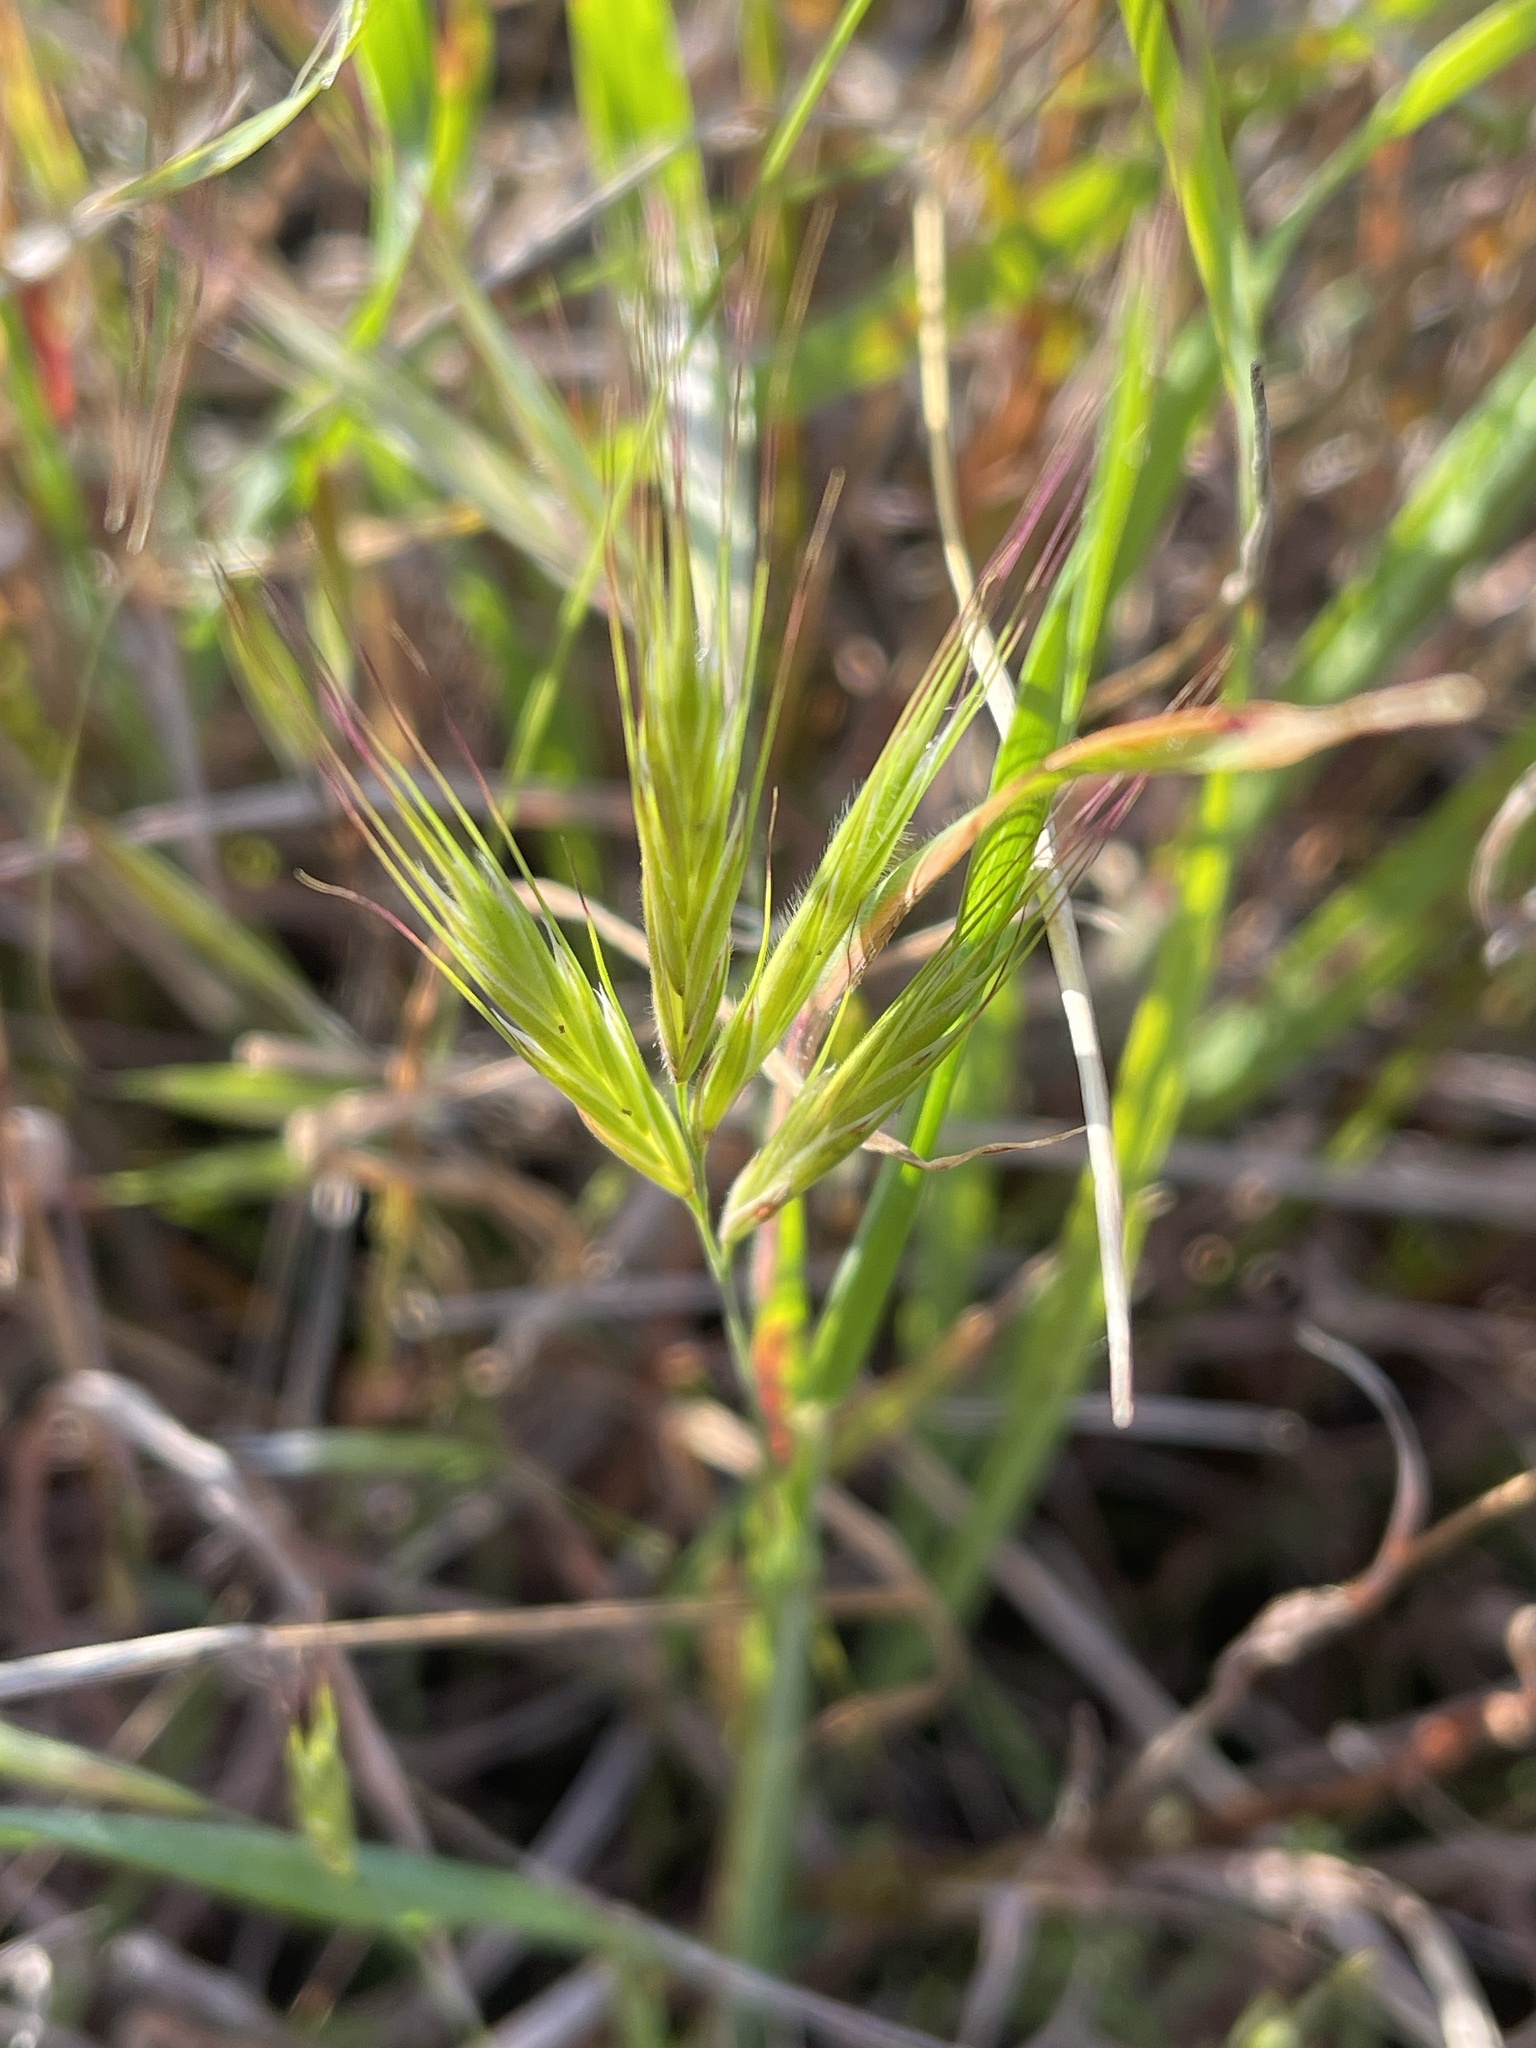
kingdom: Plantae
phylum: Tracheophyta
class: Liliopsida
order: Poales
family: Poaceae
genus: Bromus
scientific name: Bromus madritensis
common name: Compact brome
